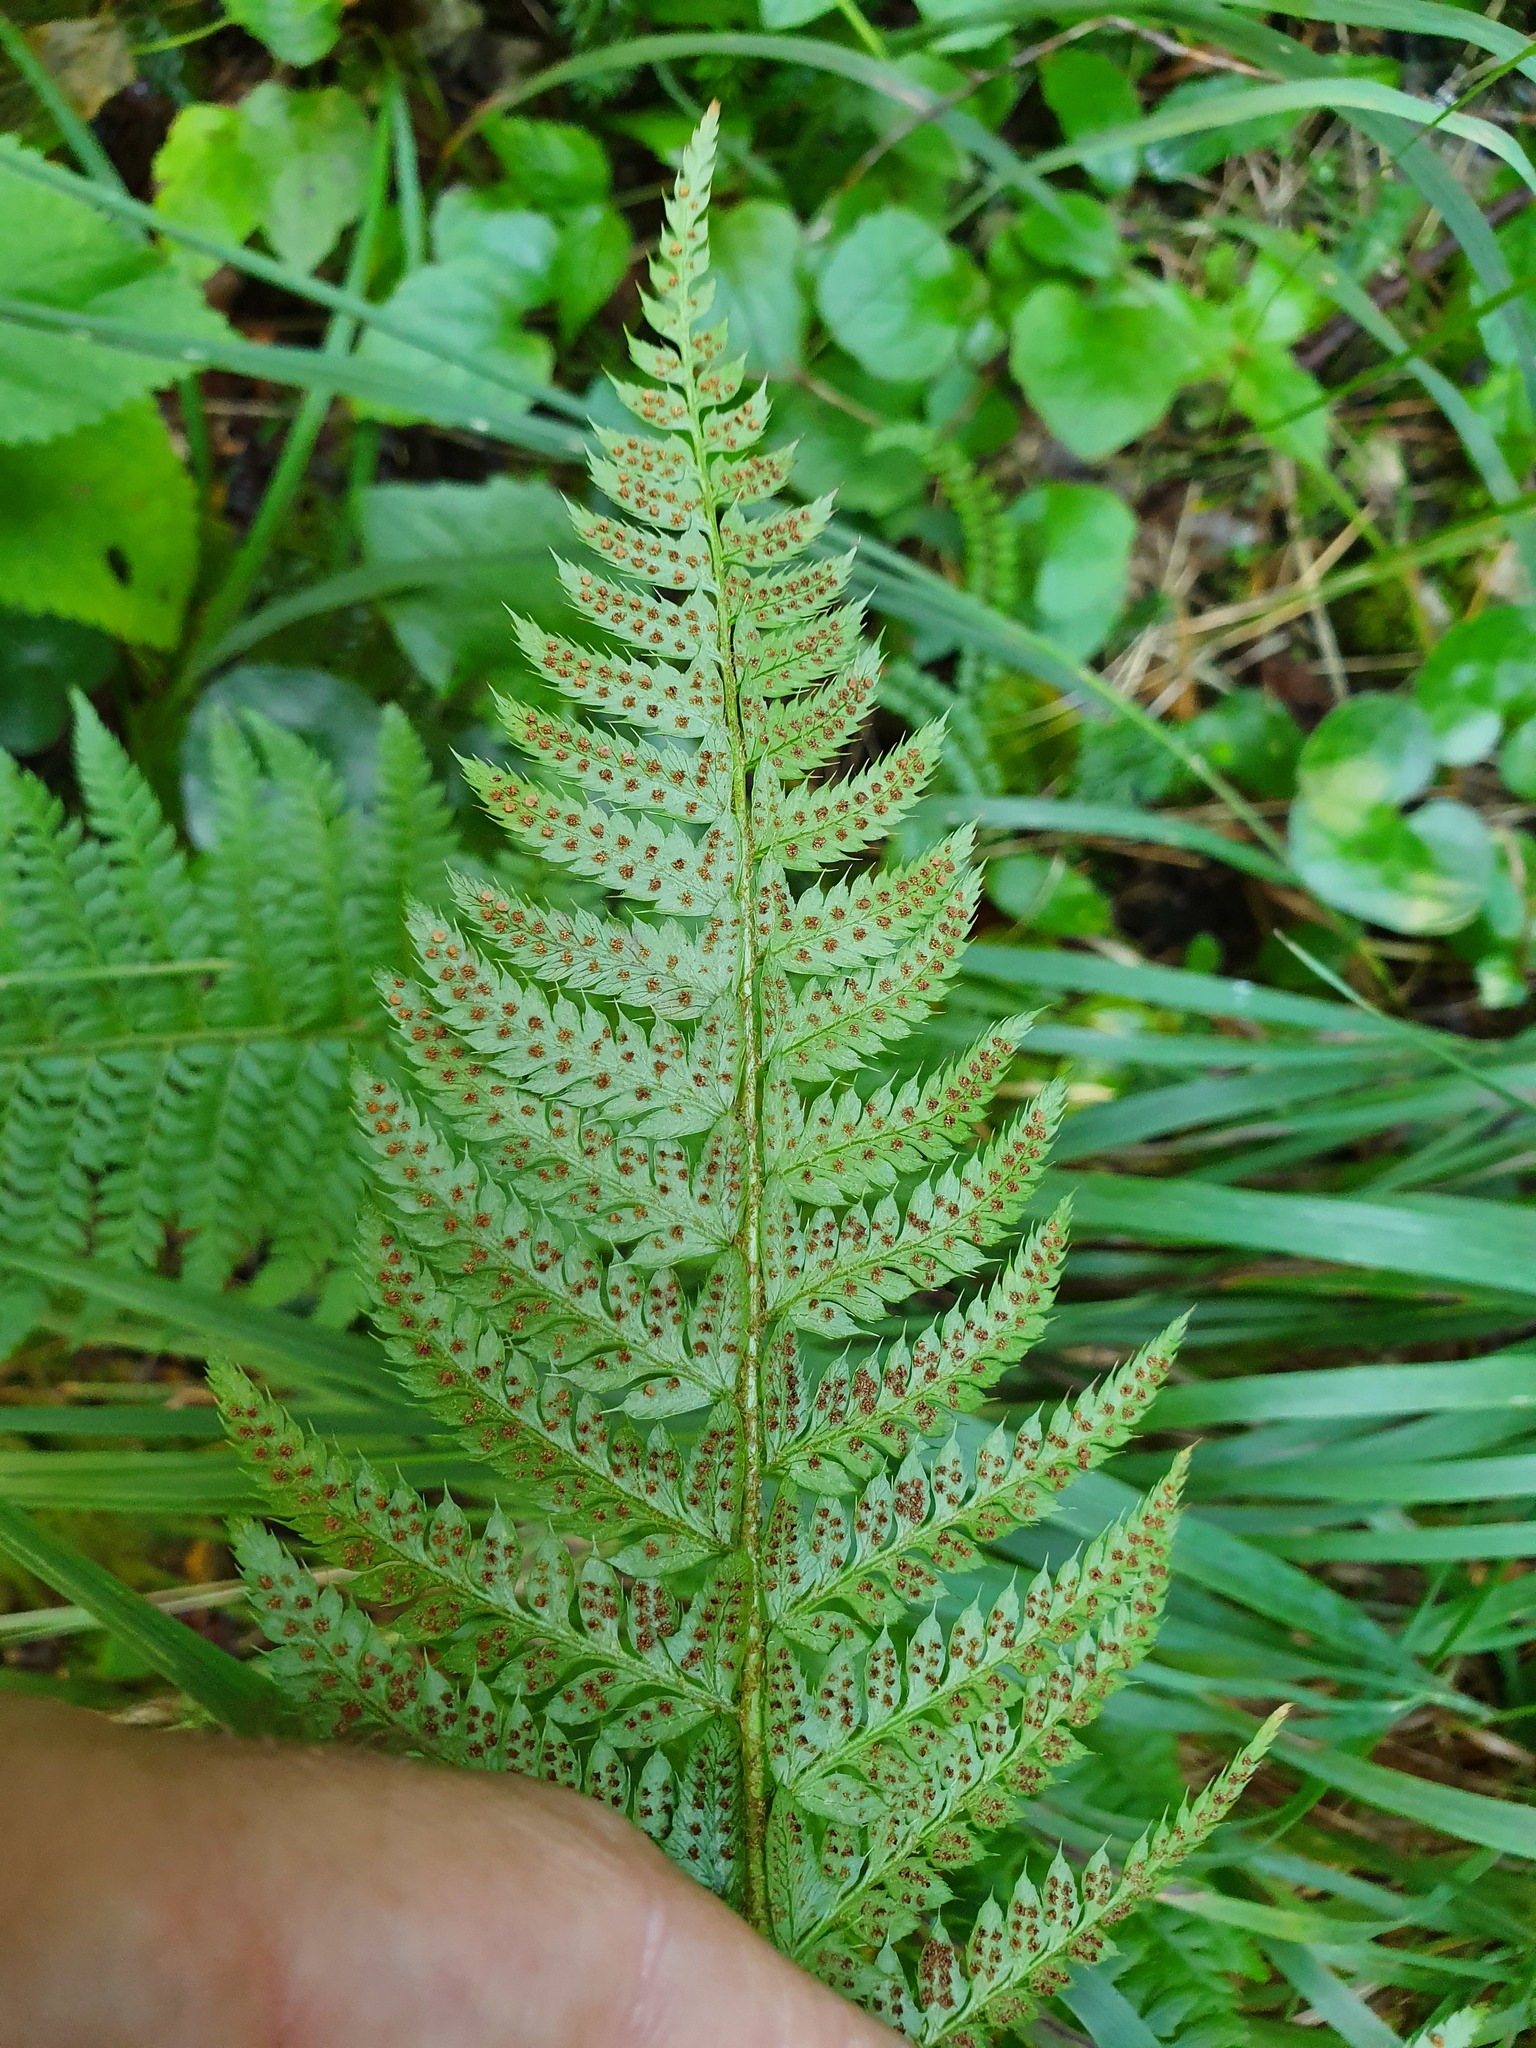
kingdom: Plantae
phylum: Tracheophyta
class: Polypodiopsida
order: Polypodiales
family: Dryopteridaceae
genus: Polystichum
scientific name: Polystichum aculeatum
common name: Hard shield-fern
